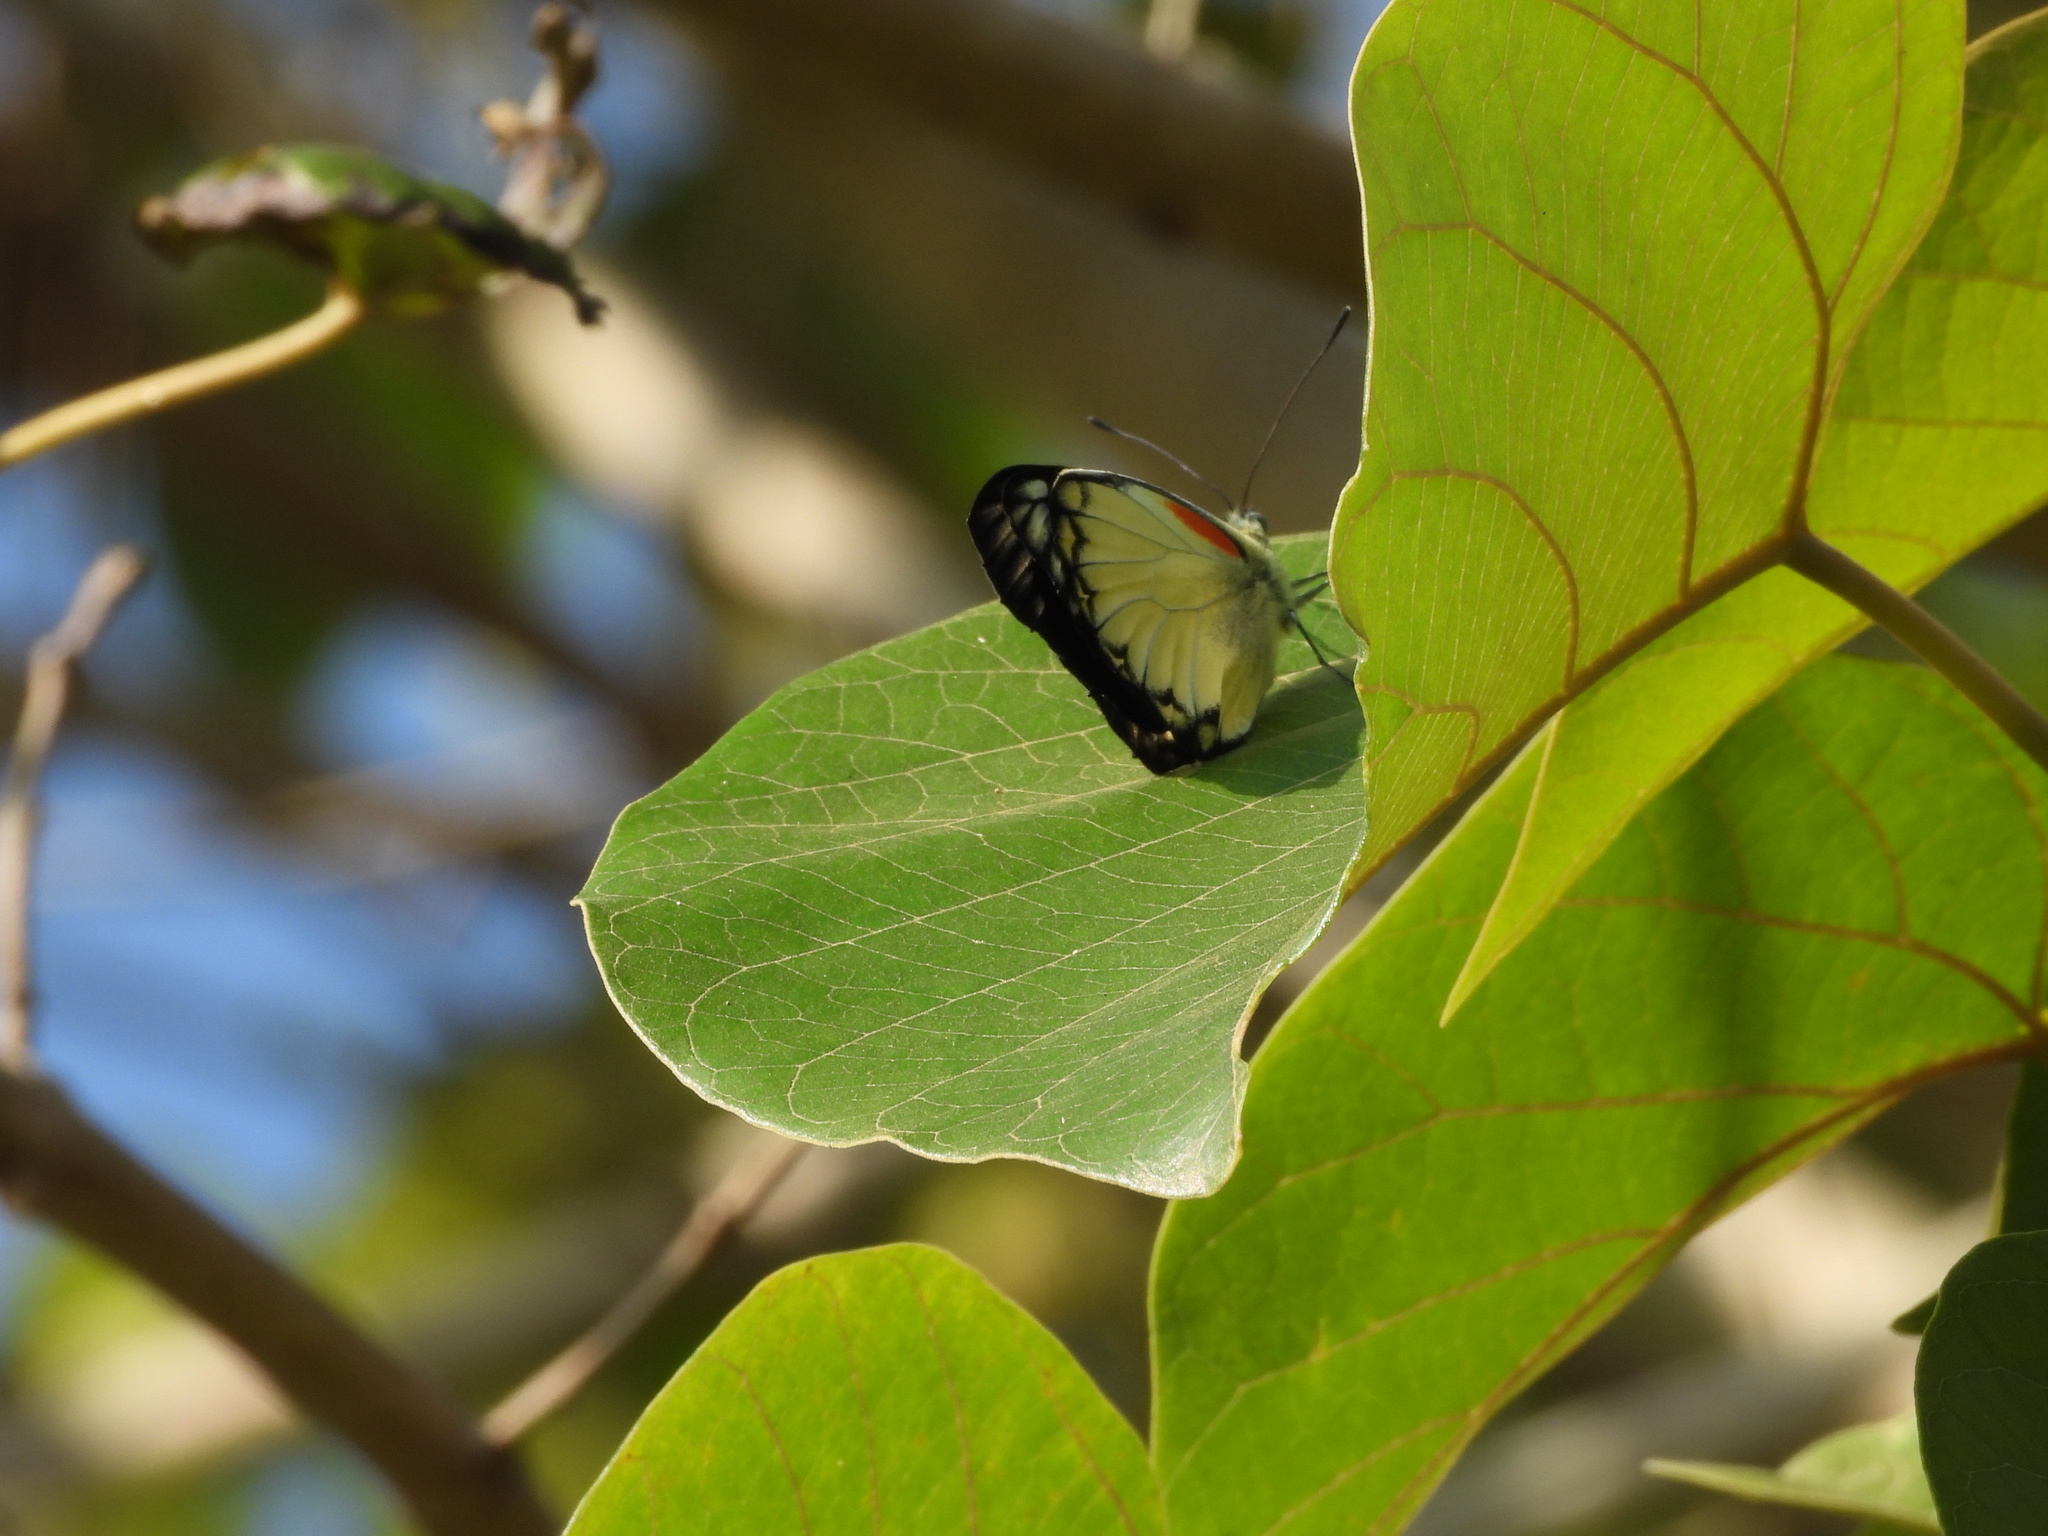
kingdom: Animalia
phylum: Arthropoda
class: Insecta
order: Lepidoptera
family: Pieridae
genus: Delias
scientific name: Delias belisama
